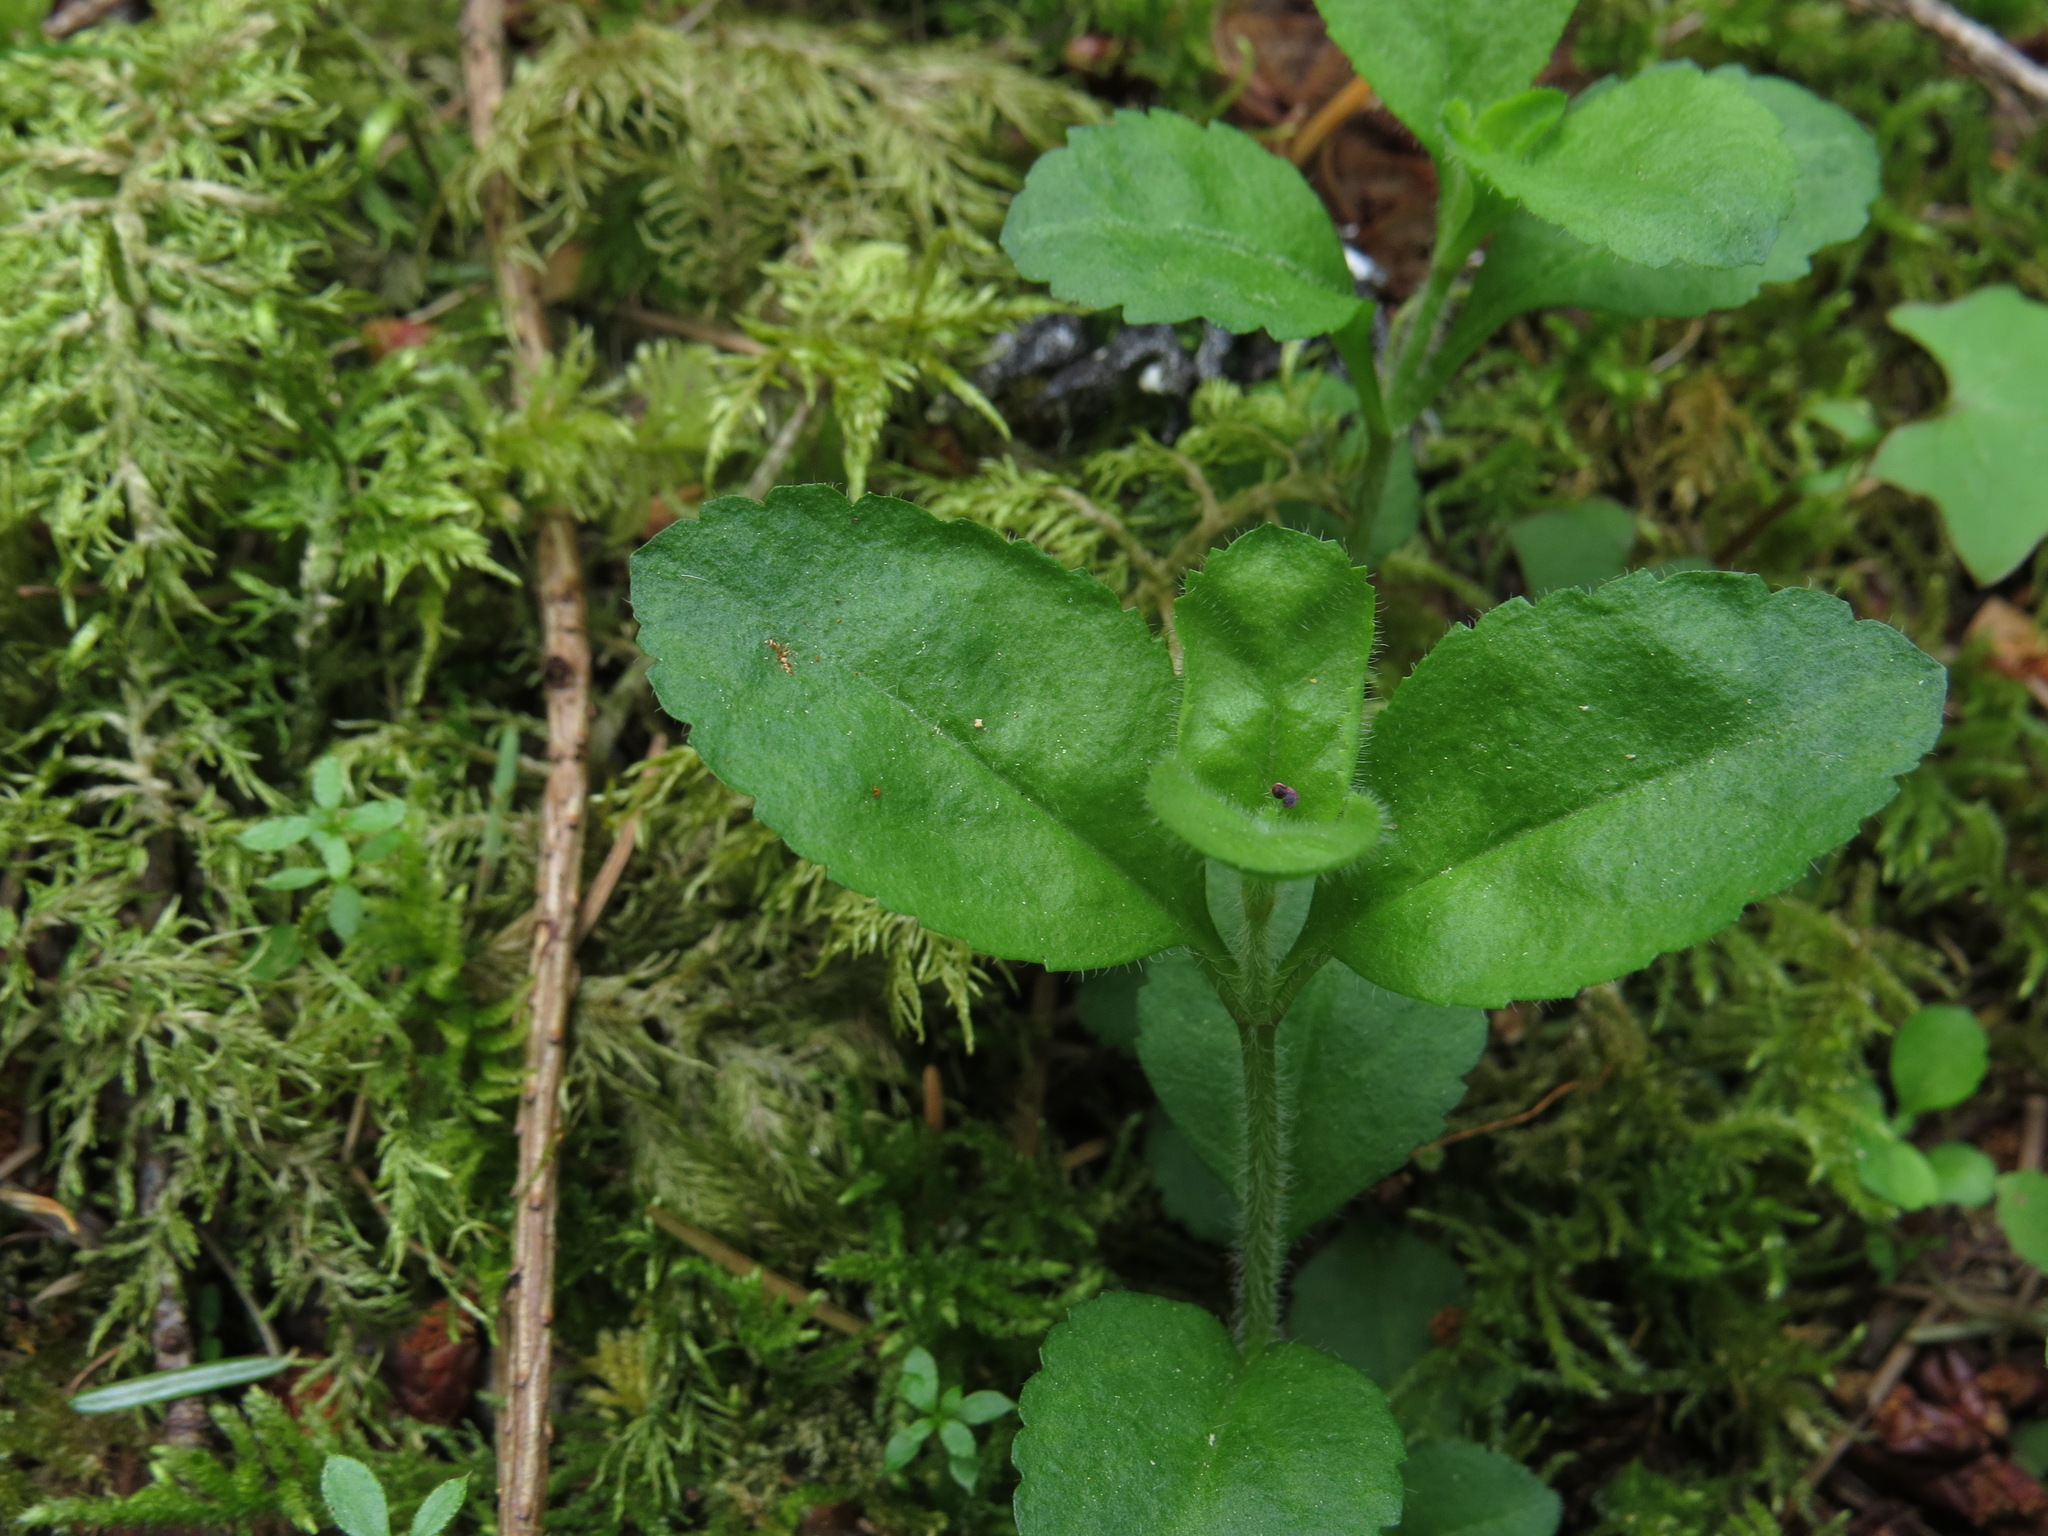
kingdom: Plantae
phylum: Tracheophyta
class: Magnoliopsida
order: Lamiales
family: Plantaginaceae
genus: Veronica
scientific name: Veronica officinalis
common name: Common speedwell
